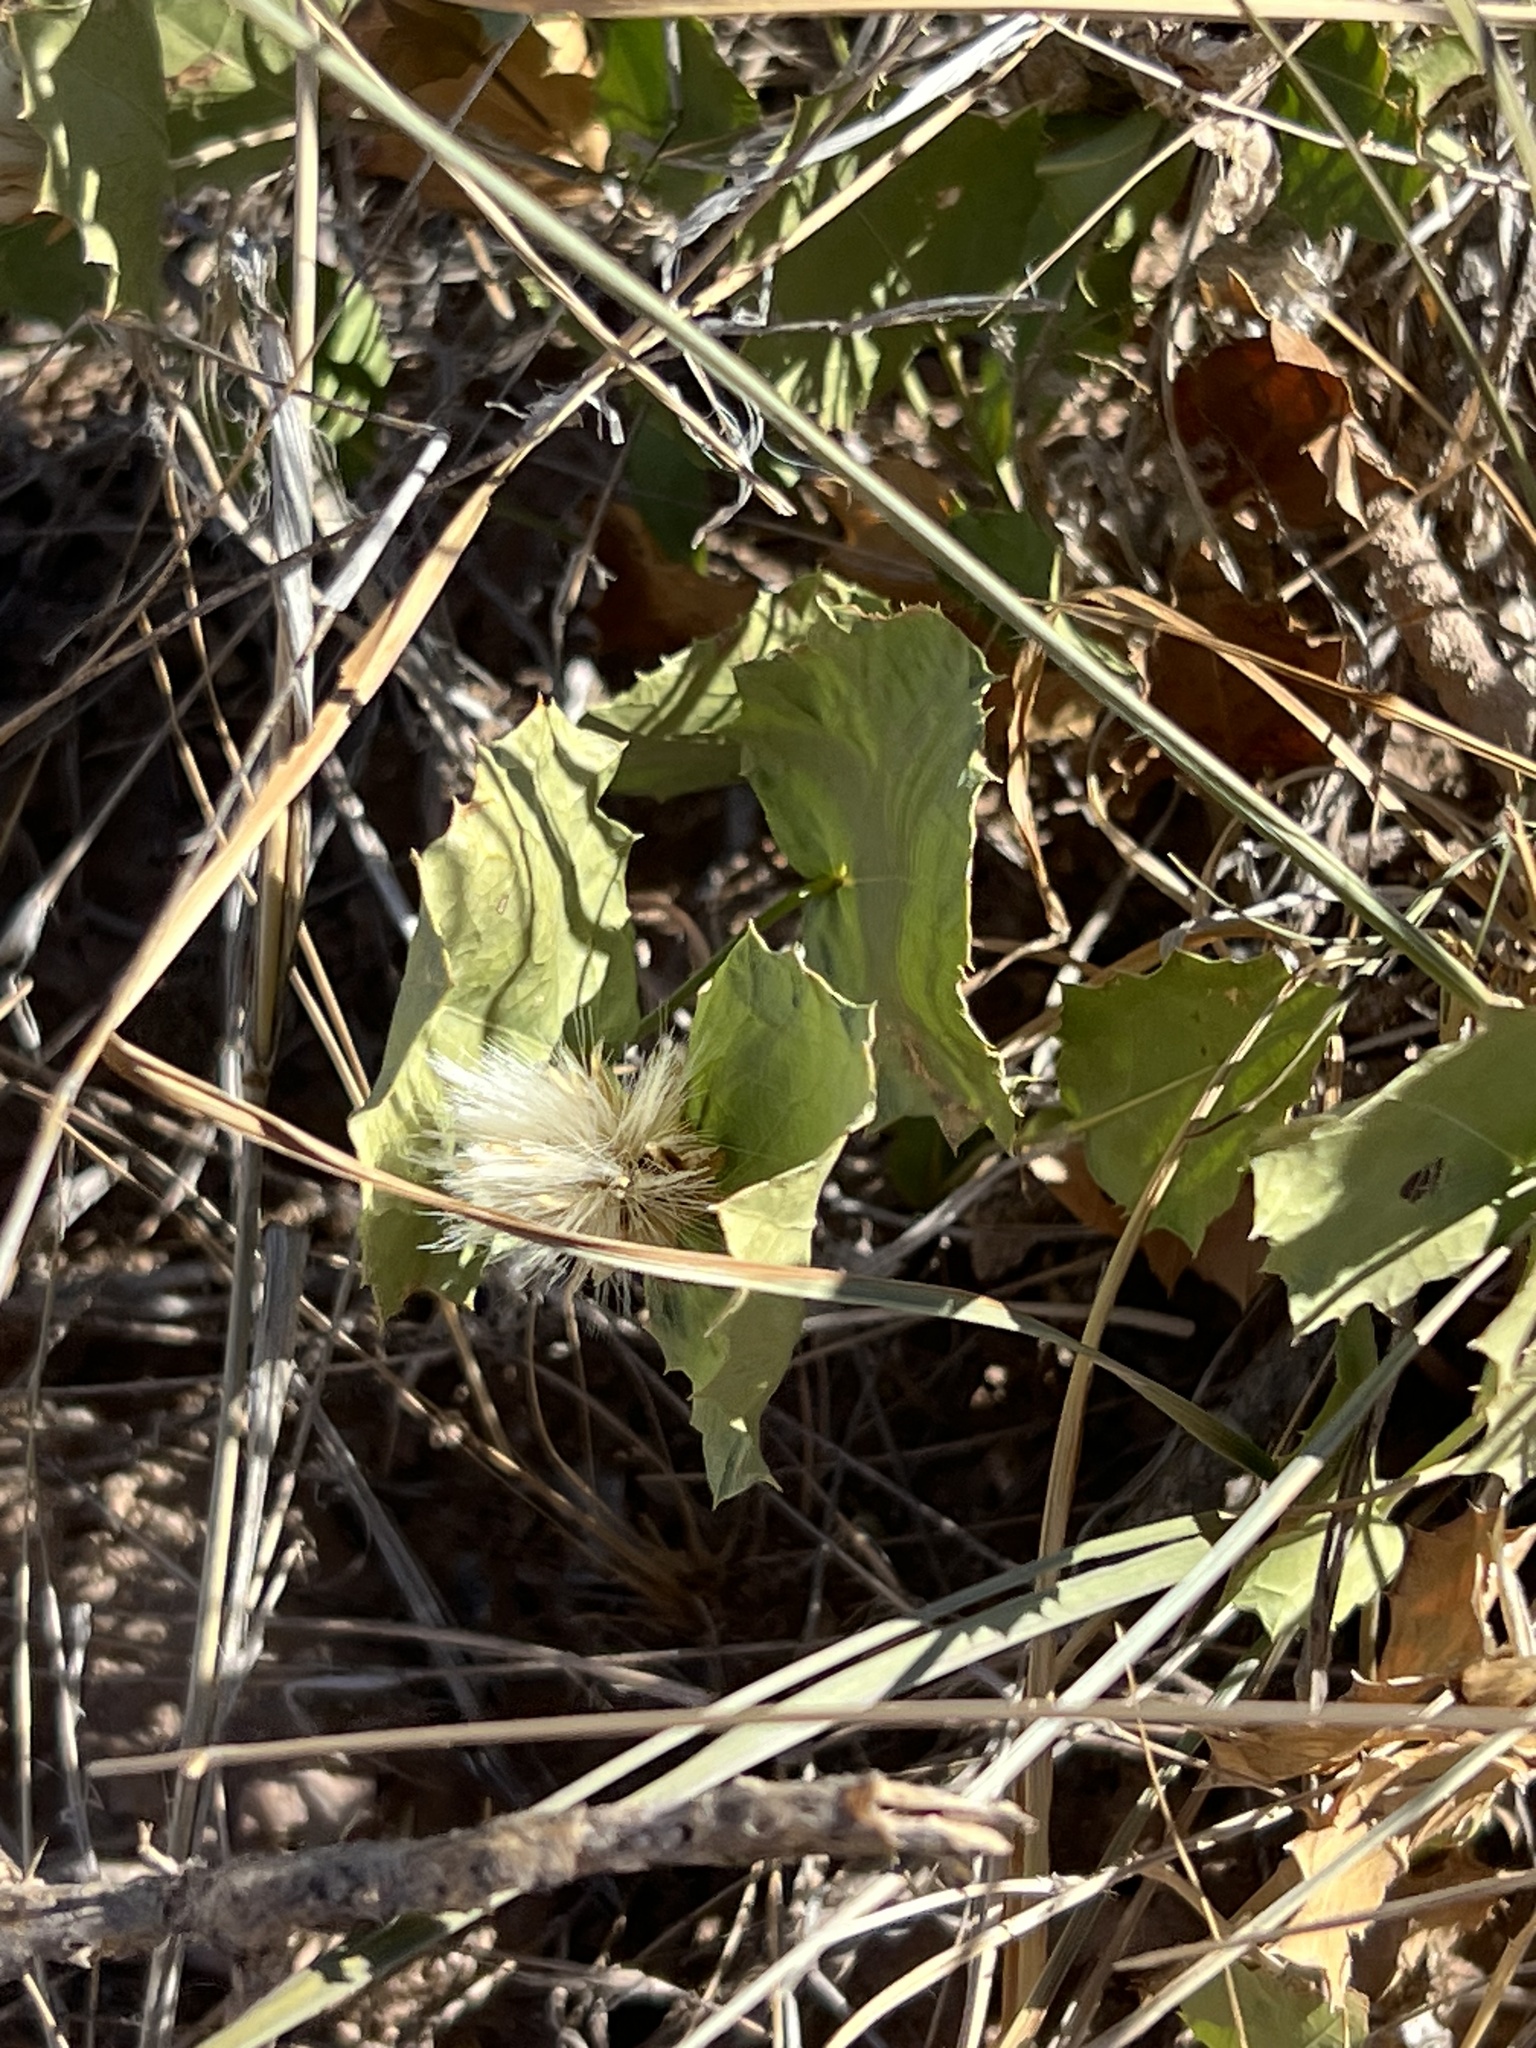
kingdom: Plantae
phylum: Tracheophyta
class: Magnoliopsida
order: Asterales
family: Asteraceae
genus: Acourtia
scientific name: Acourtia nana
